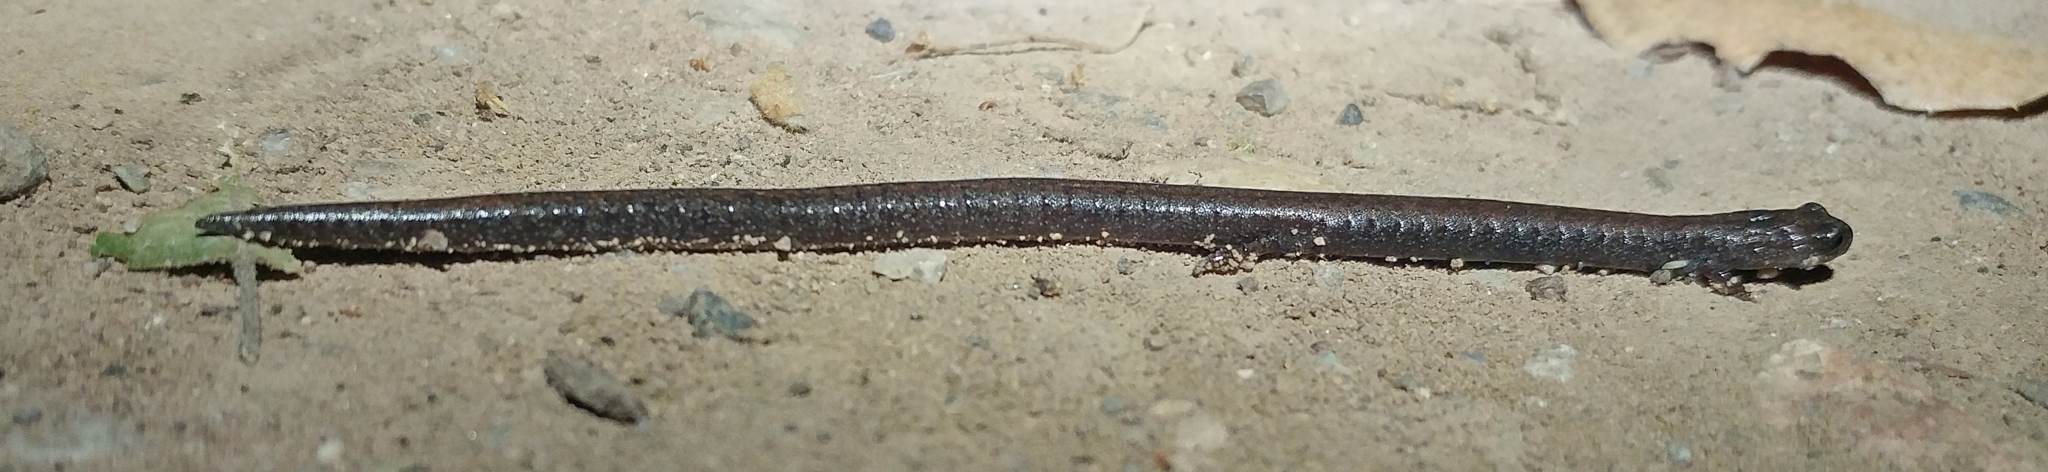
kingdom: Animalia
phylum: Chordata
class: Amphibia
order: Caudata
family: Plethodontidae
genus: Batrachoseps
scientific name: Batrachoseps nigriventris
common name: Black-bellied slender salamander
